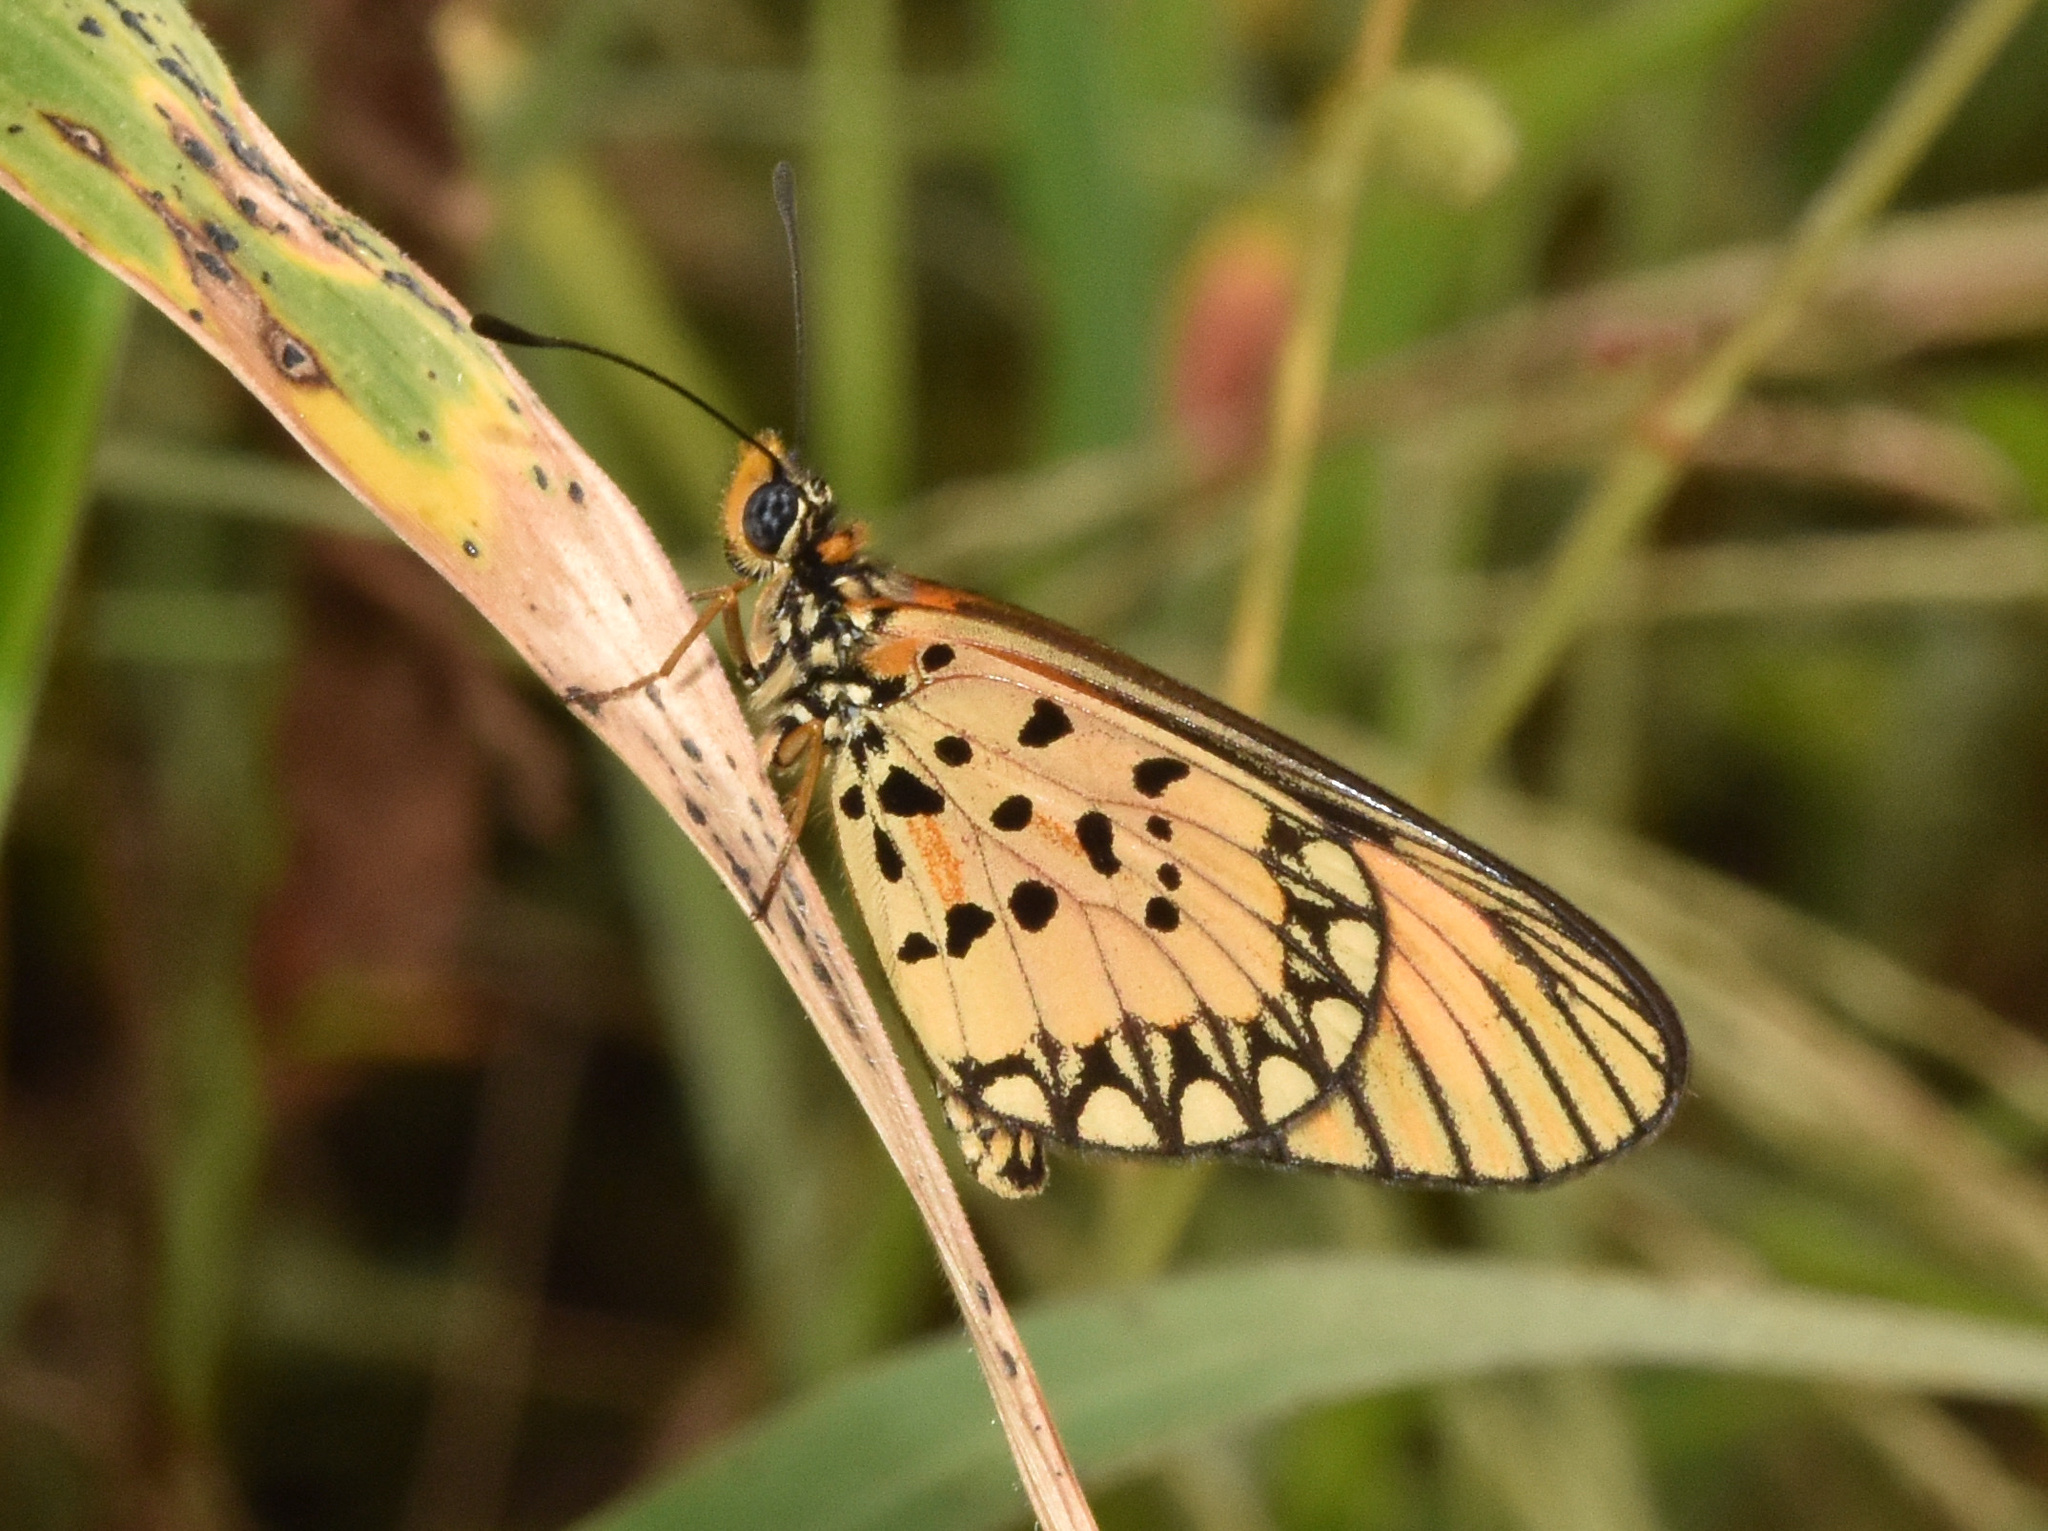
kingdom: Animalia
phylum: Arthropoda
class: Insecta
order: Lepidoptera
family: Nymphalidae
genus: Acraea
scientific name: Acraea Telchinia serena
